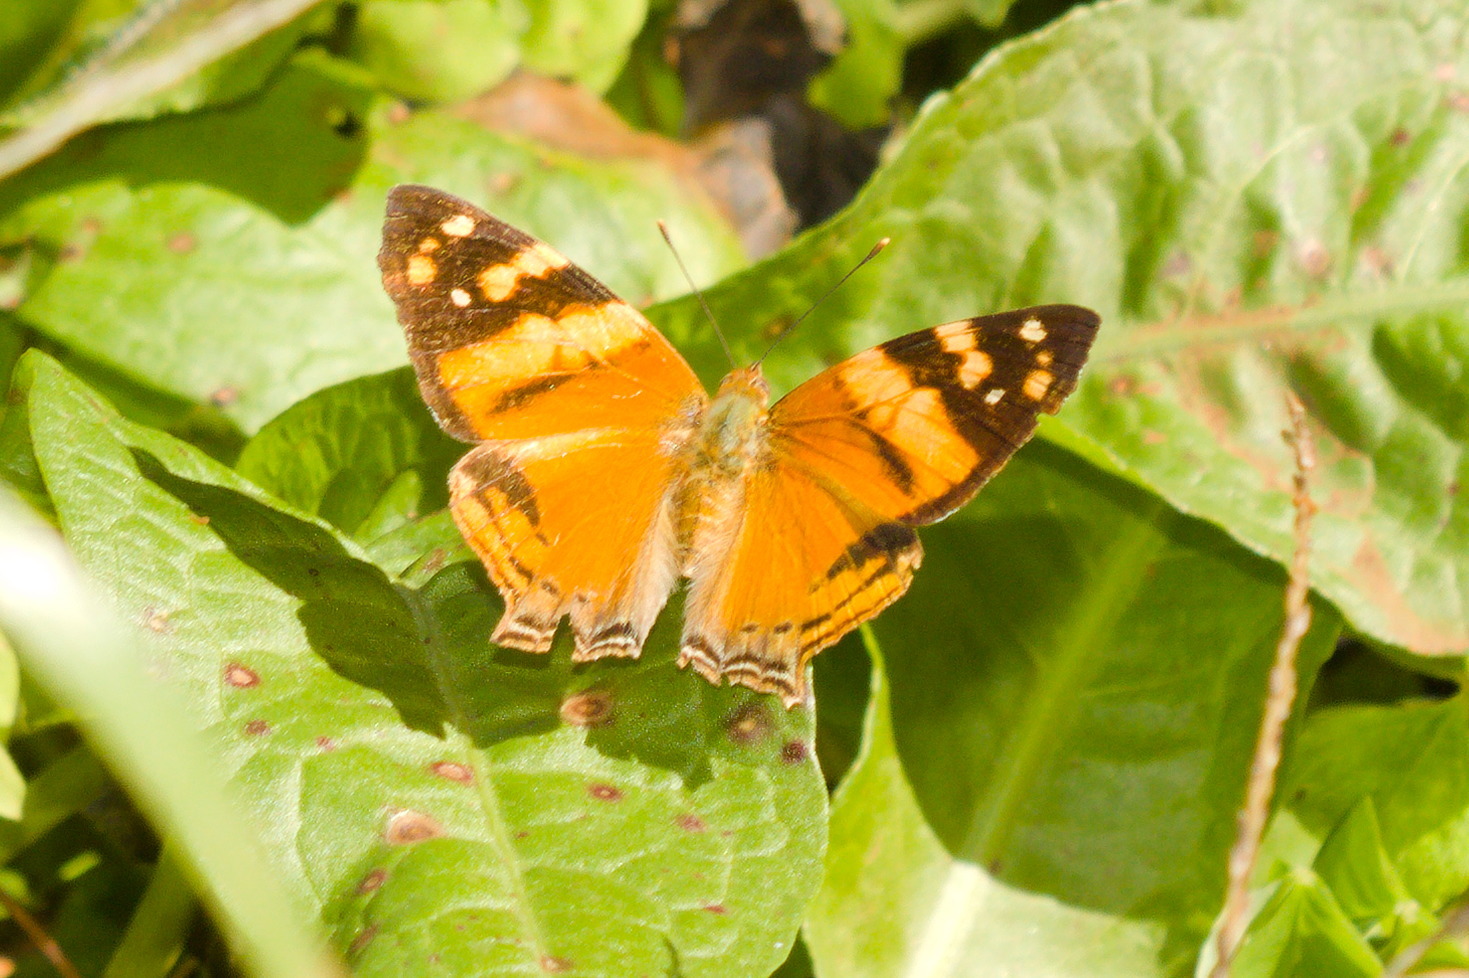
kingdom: Animalia
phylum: Arthropoda
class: Insecta
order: Lepidoptera
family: Nymphalidae
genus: Hypanartia
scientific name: Hypanartia lethe
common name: Orange mapwing
